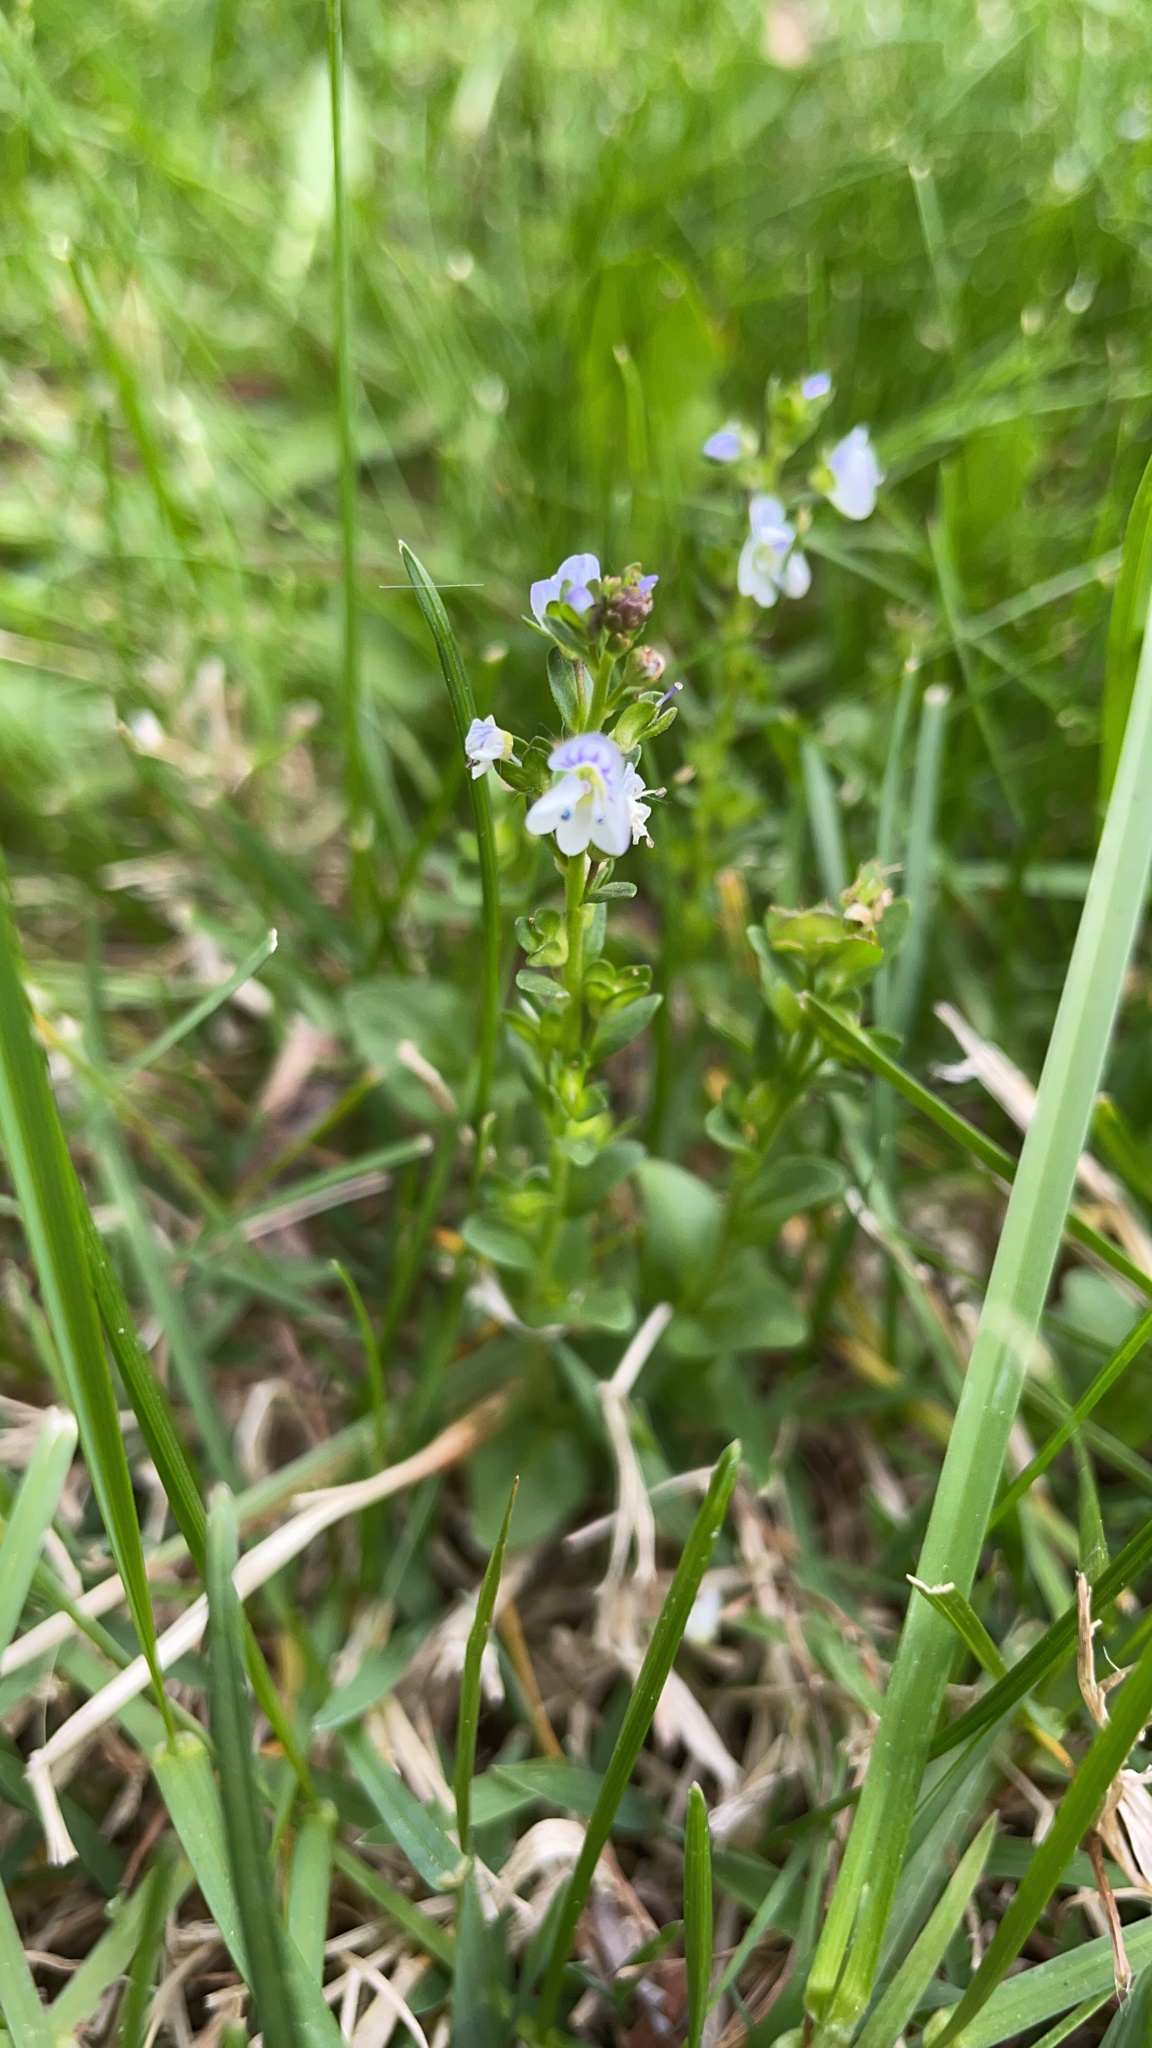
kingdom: Plantae
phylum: Tracheophyta
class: Magnoliopsida
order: Lamiales
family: Plantaginaceae
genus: Veronica
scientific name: Veronica serpyllifolia
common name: Thyme-leaved speedwell
